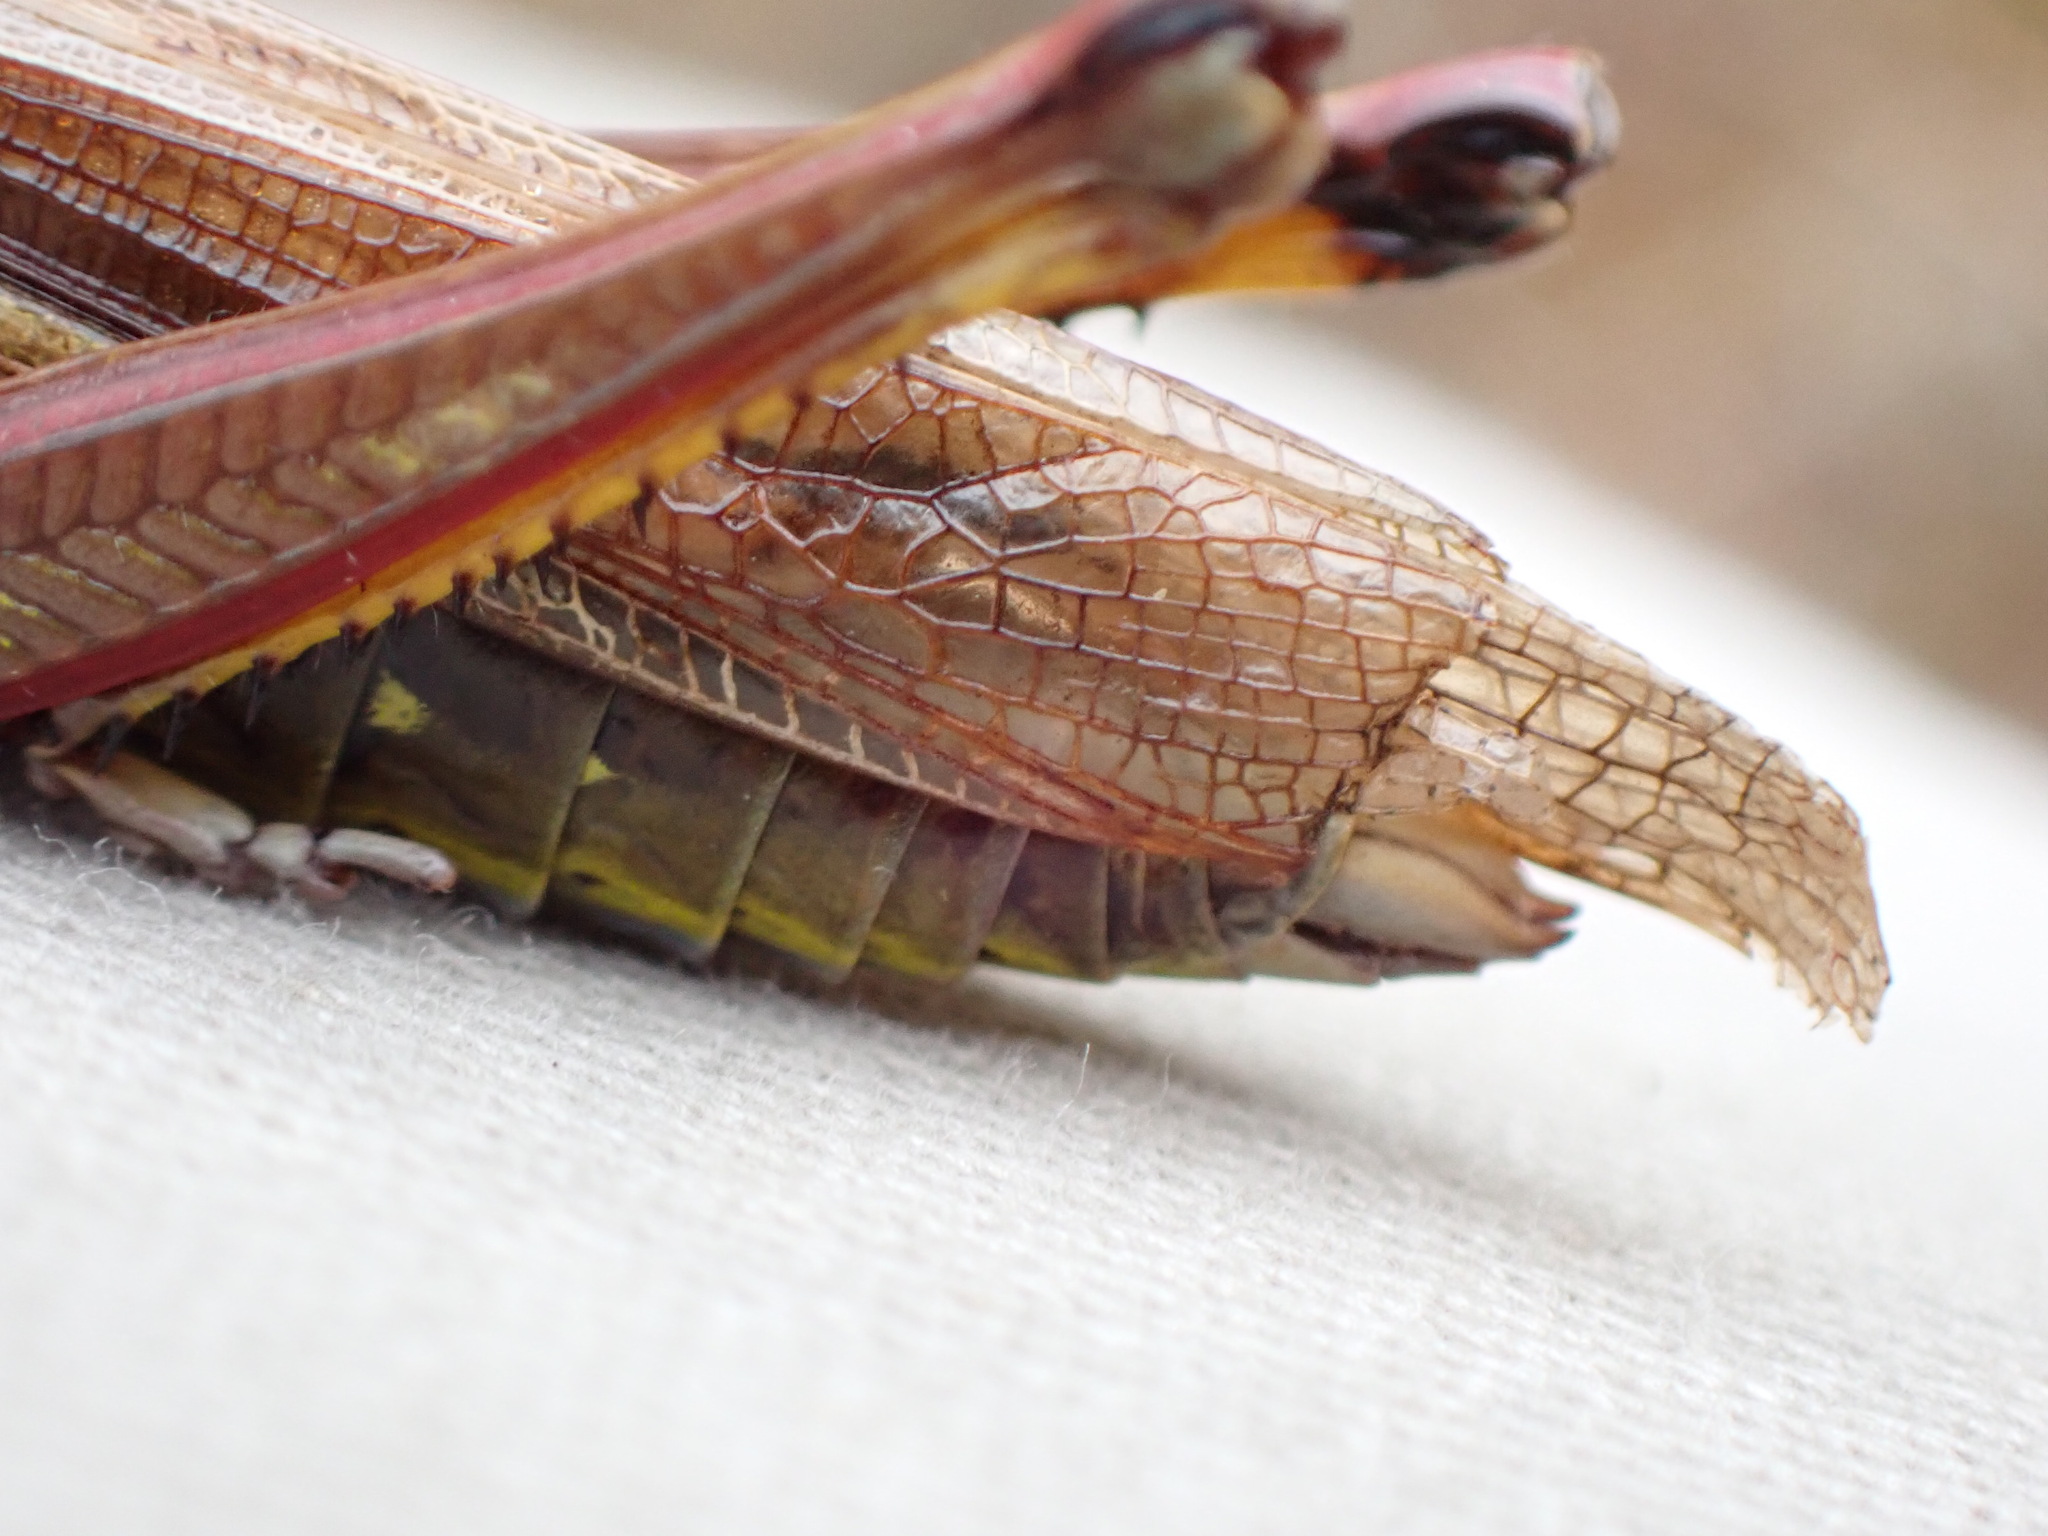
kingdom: Animalia
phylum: Arthropoda
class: Insecta
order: Orthoptera
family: Acrididae
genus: Stethophyma
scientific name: Stethophyma lineatum
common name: Striped sedge locust
